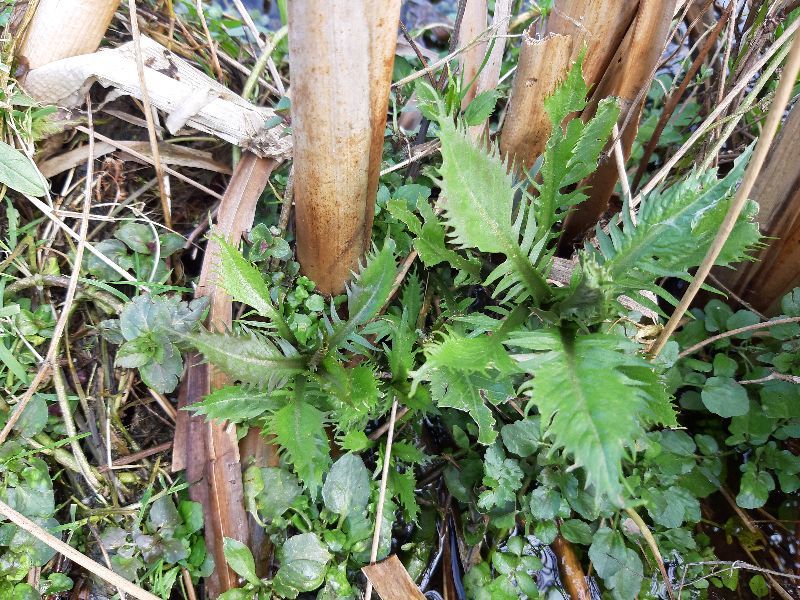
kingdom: Plantae
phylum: Tracheophyta
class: Magnoliopsida
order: Brassicales
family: Brassicaceae
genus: Rorippa
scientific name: Rorippa amphibia
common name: Great yellow-cress
